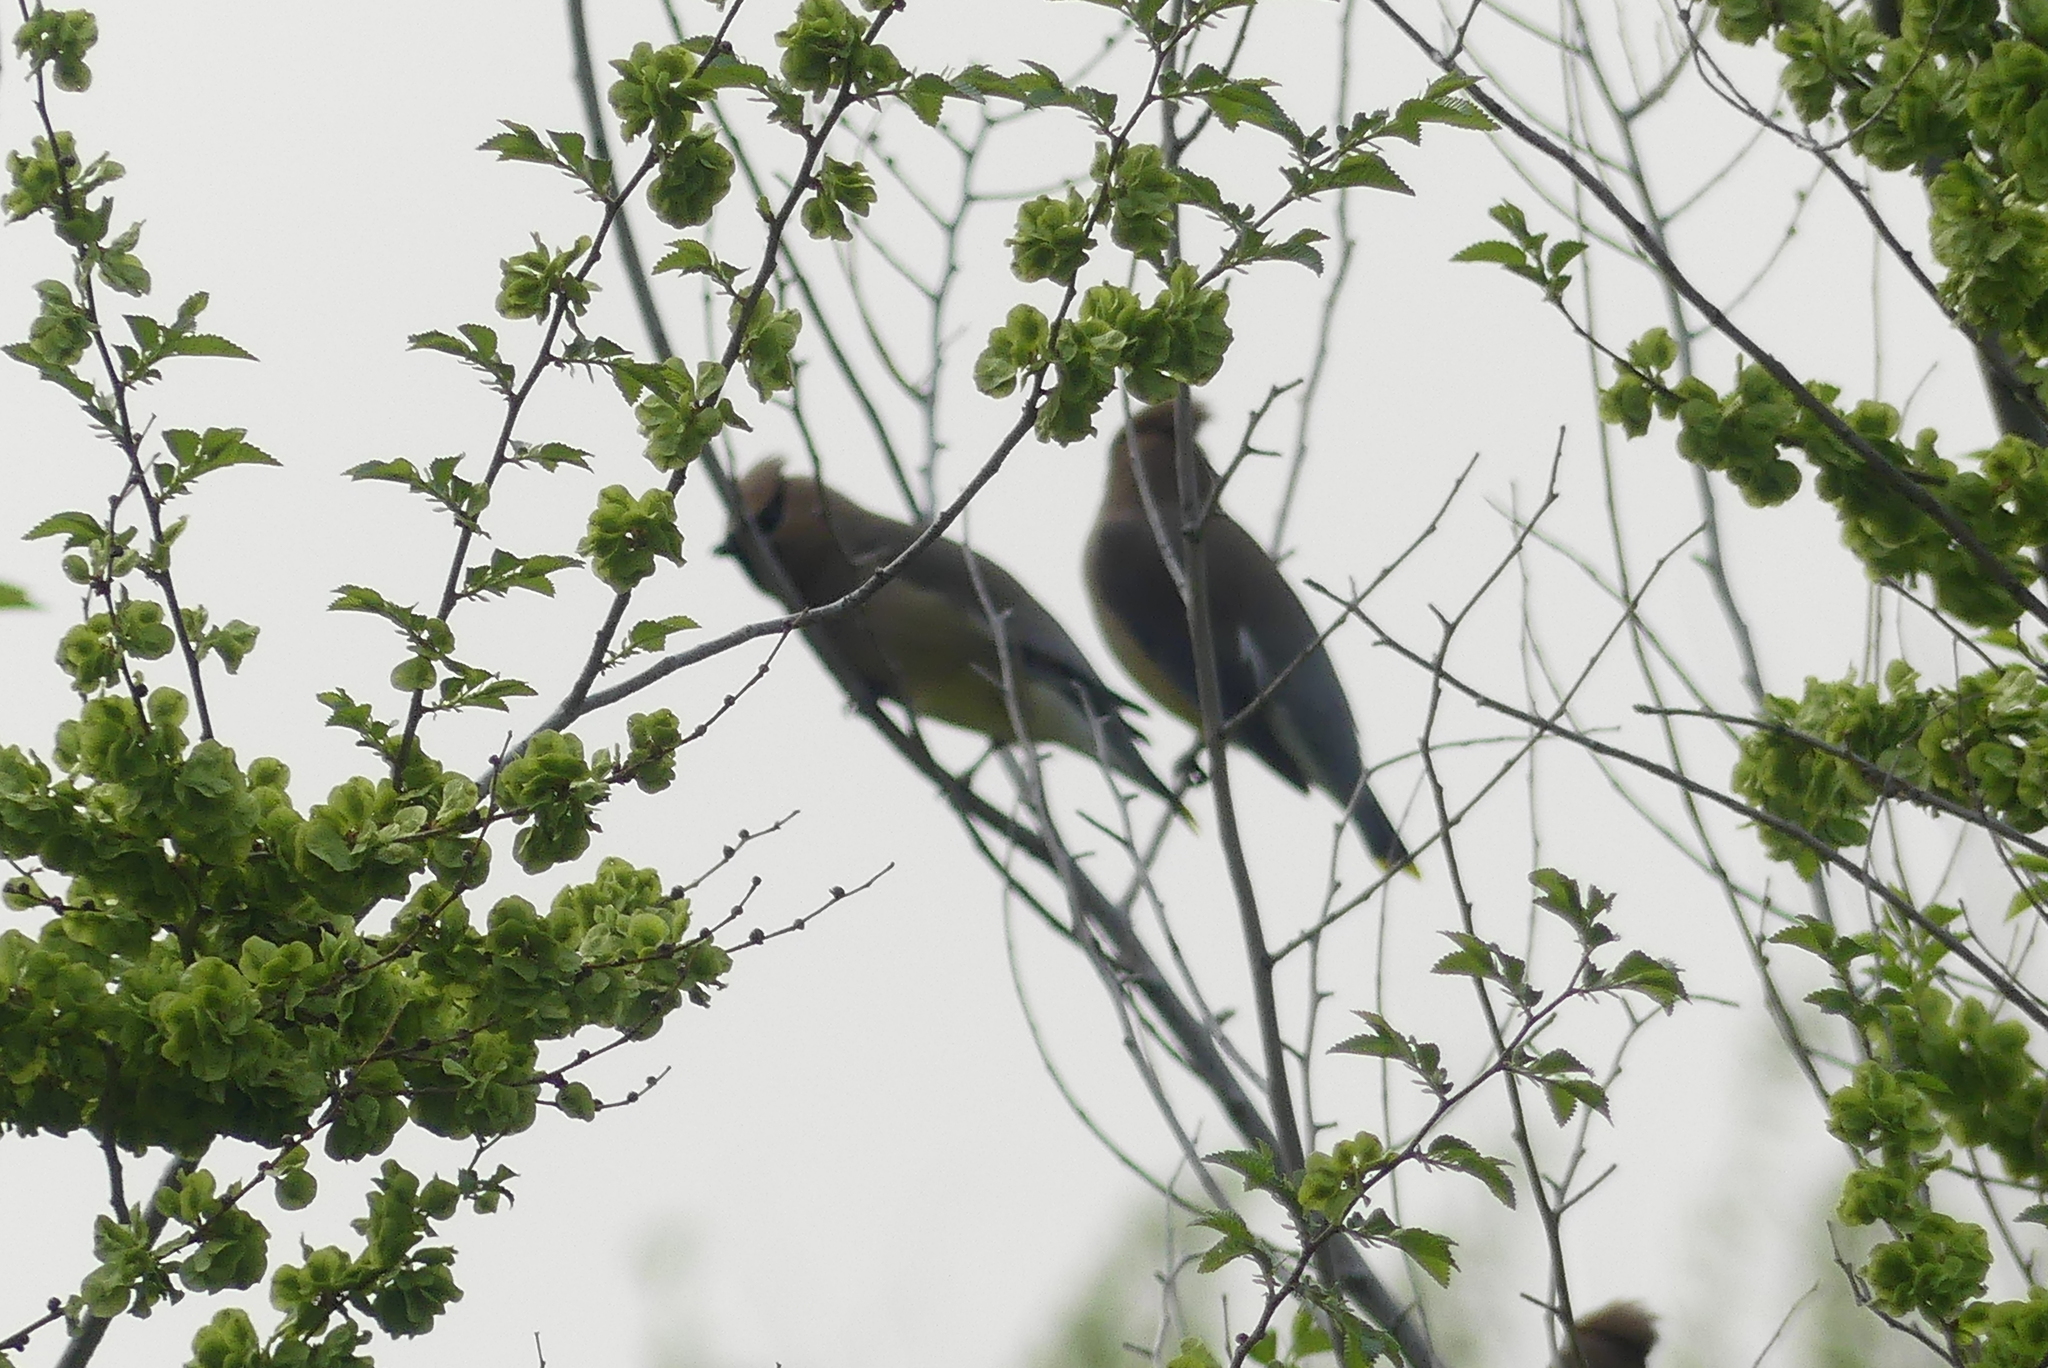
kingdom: Animalia
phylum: Chordata
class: Aves
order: Passeriformes
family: Bombycillidae
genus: Bombycilla
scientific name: Bombycilla cedrorum
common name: Cedar waxwing
